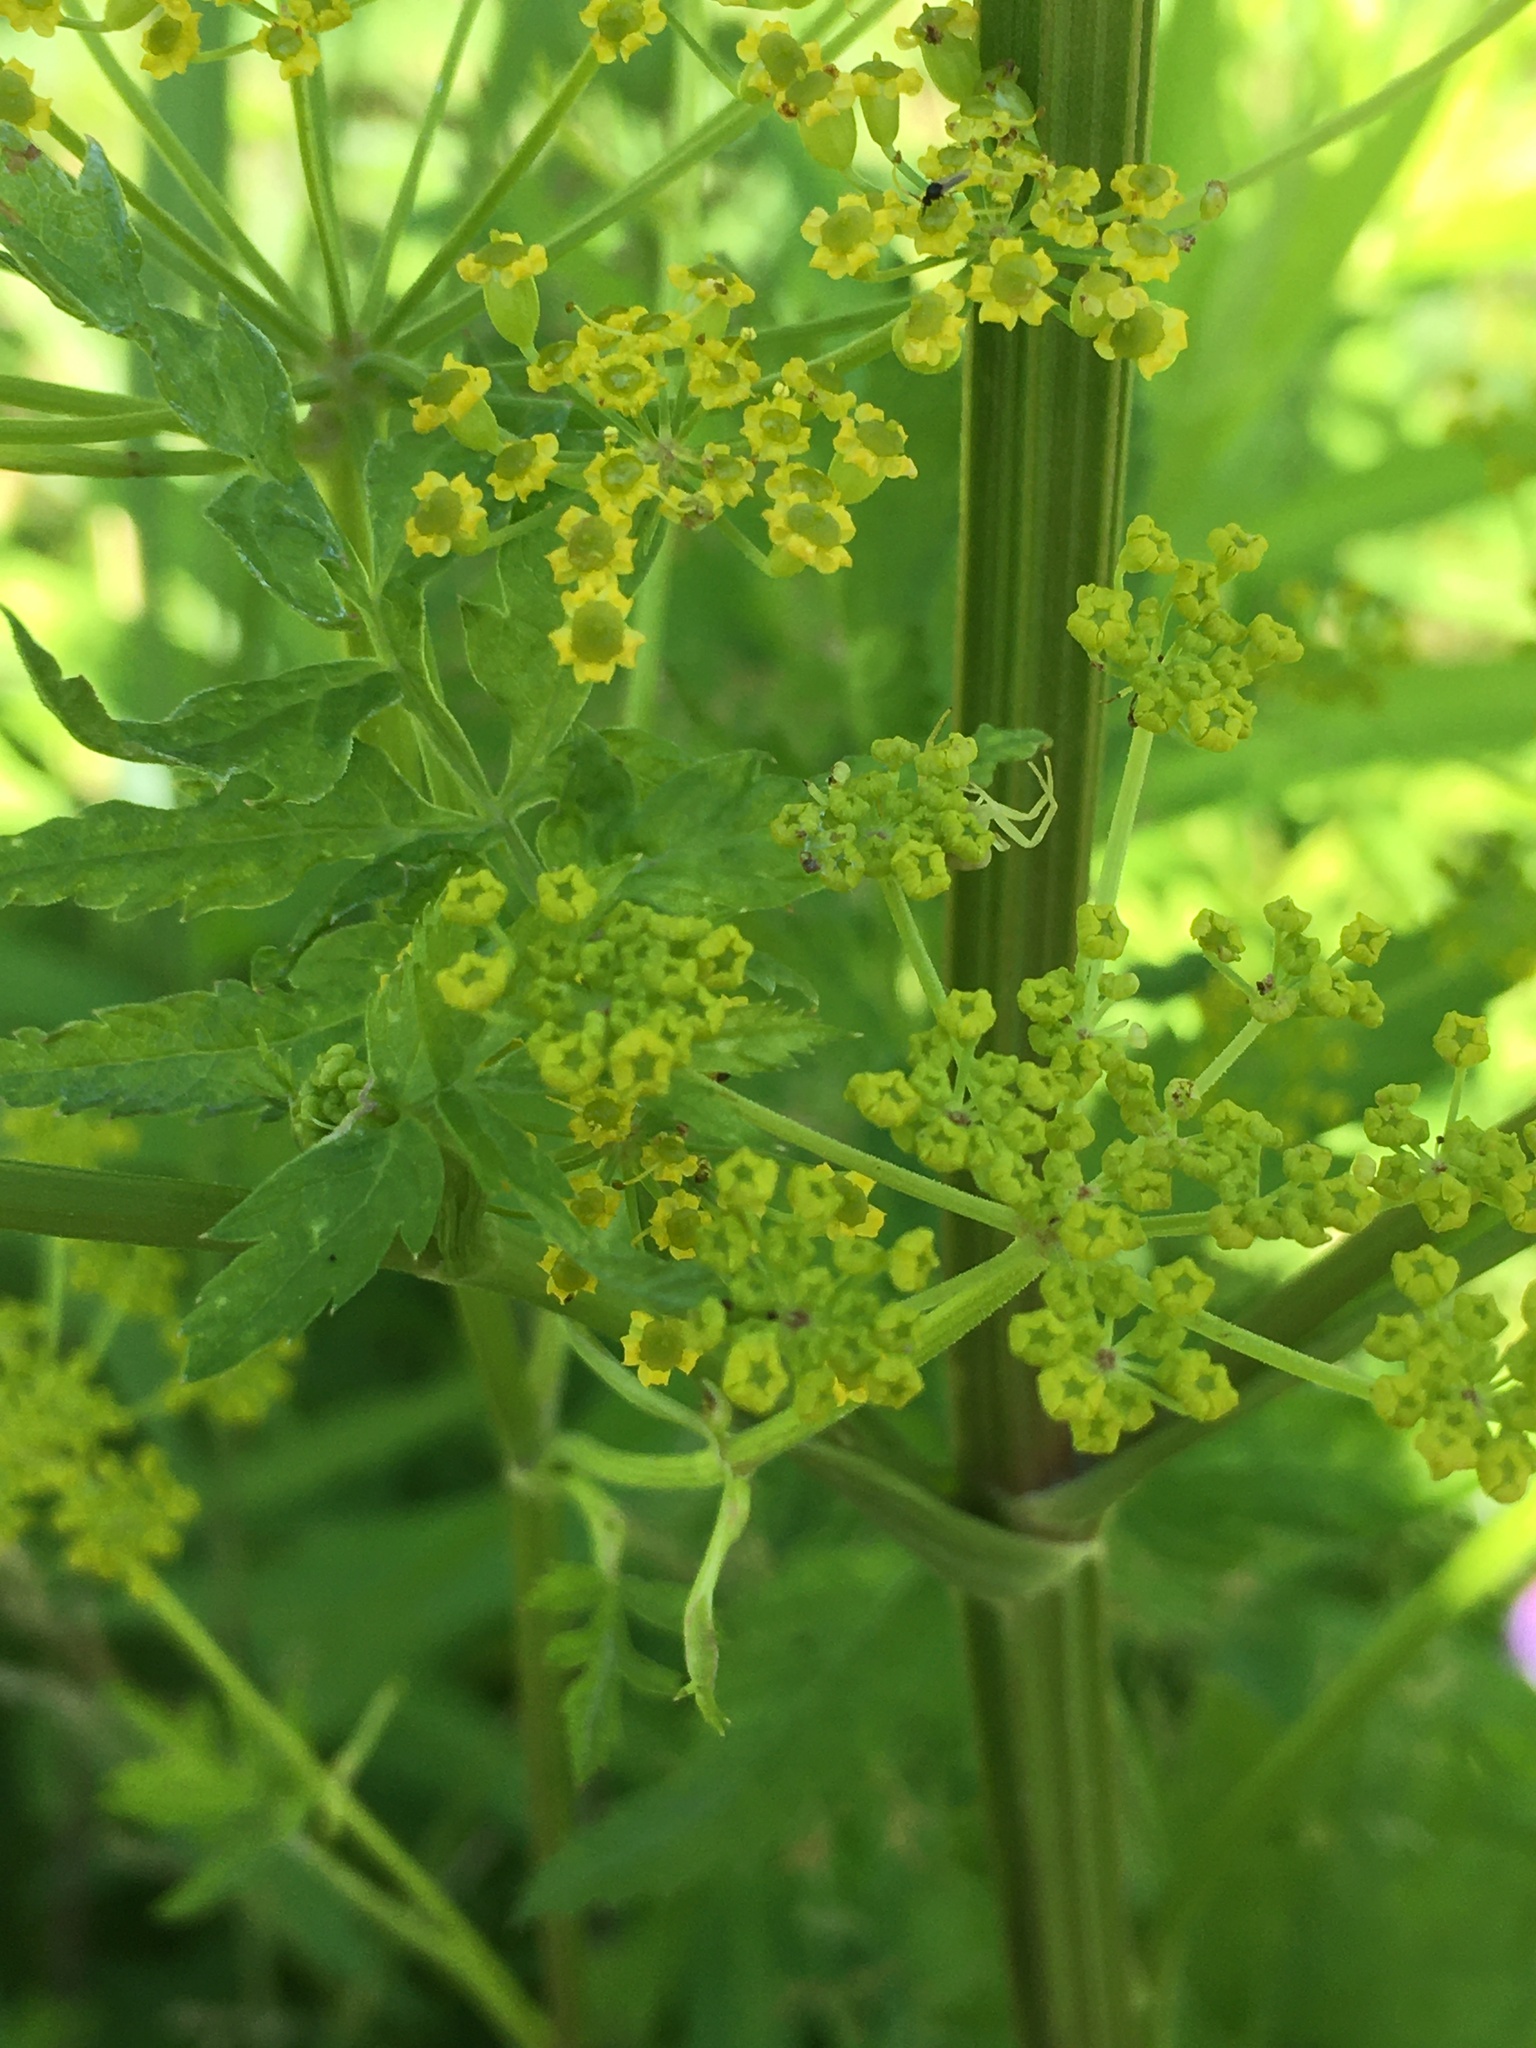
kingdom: Plantae
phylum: Tracheophyta
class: Magnoliopsida
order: Apiales
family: Apiaceae
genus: Pastinaca
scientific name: Pastinaca sativa
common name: Wild parsnip
